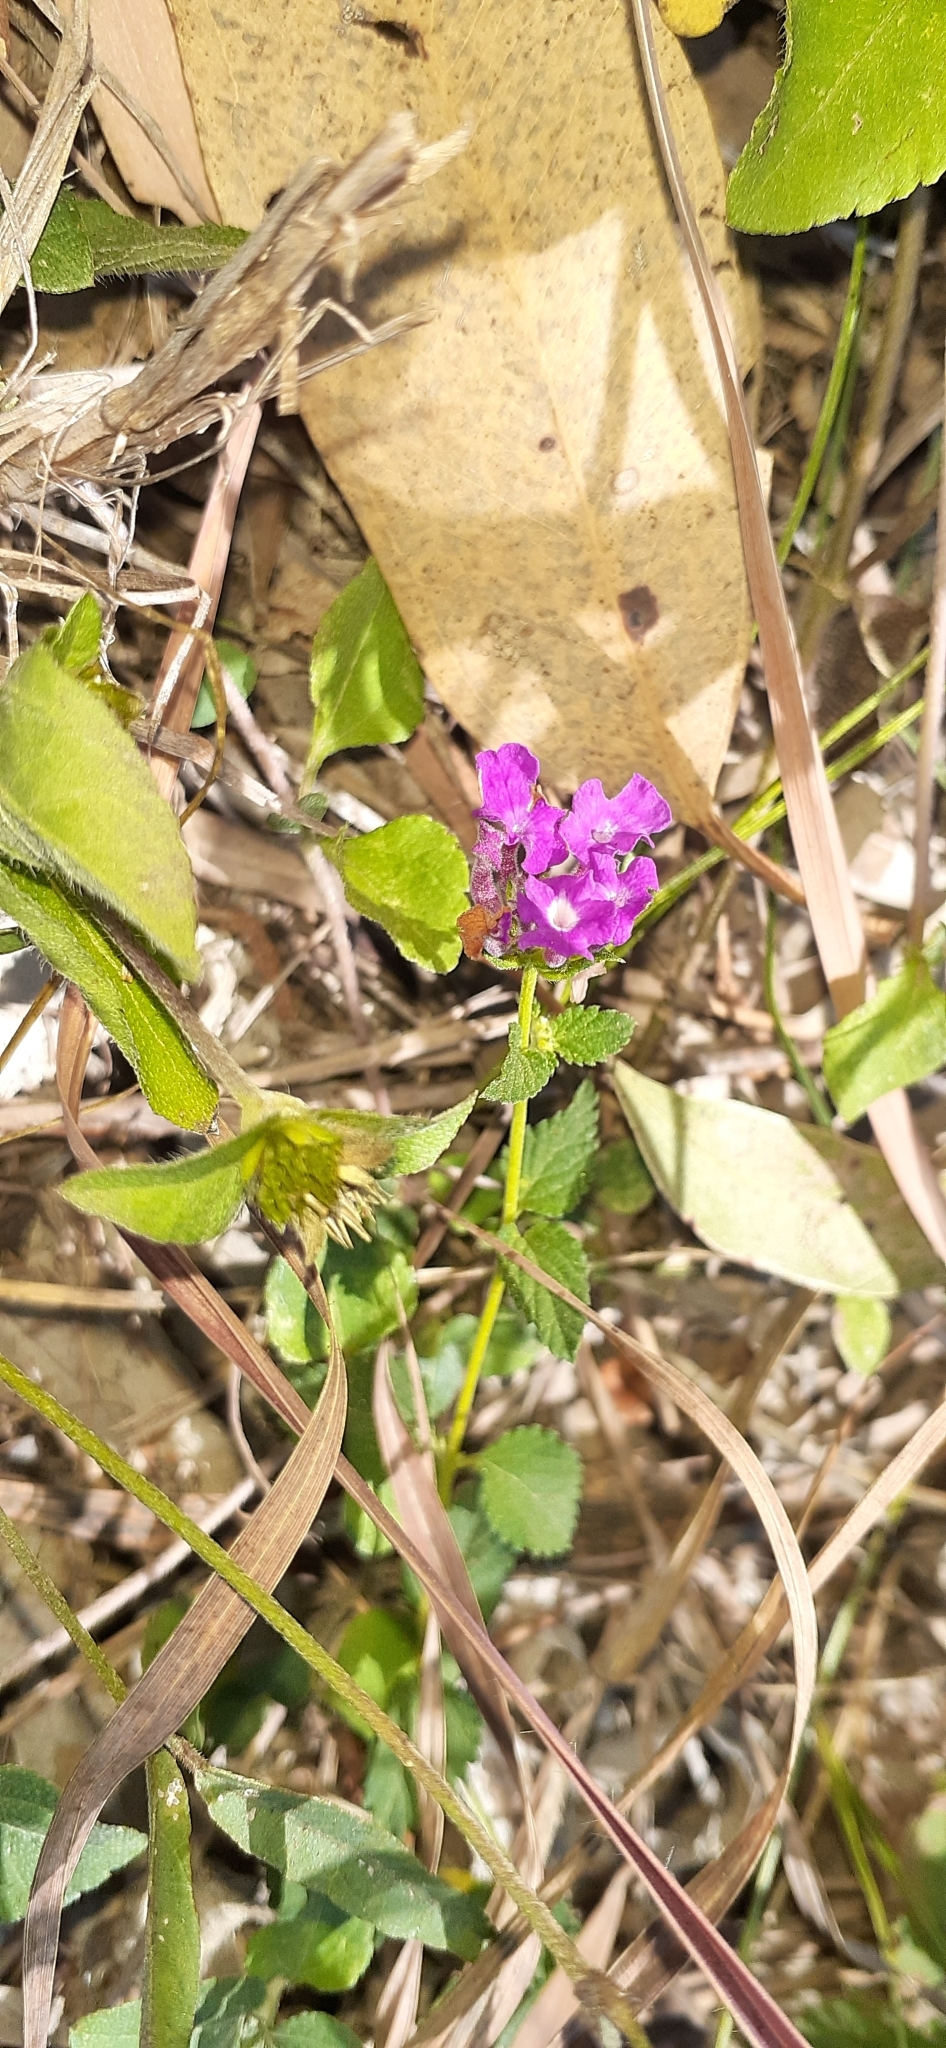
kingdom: Plantae
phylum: Tracheophyta
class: Magnoliopsida
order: Lamiales
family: Verbenaceae
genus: Lantana
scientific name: Lantana montevidensis
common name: Trailing shrubverbena
